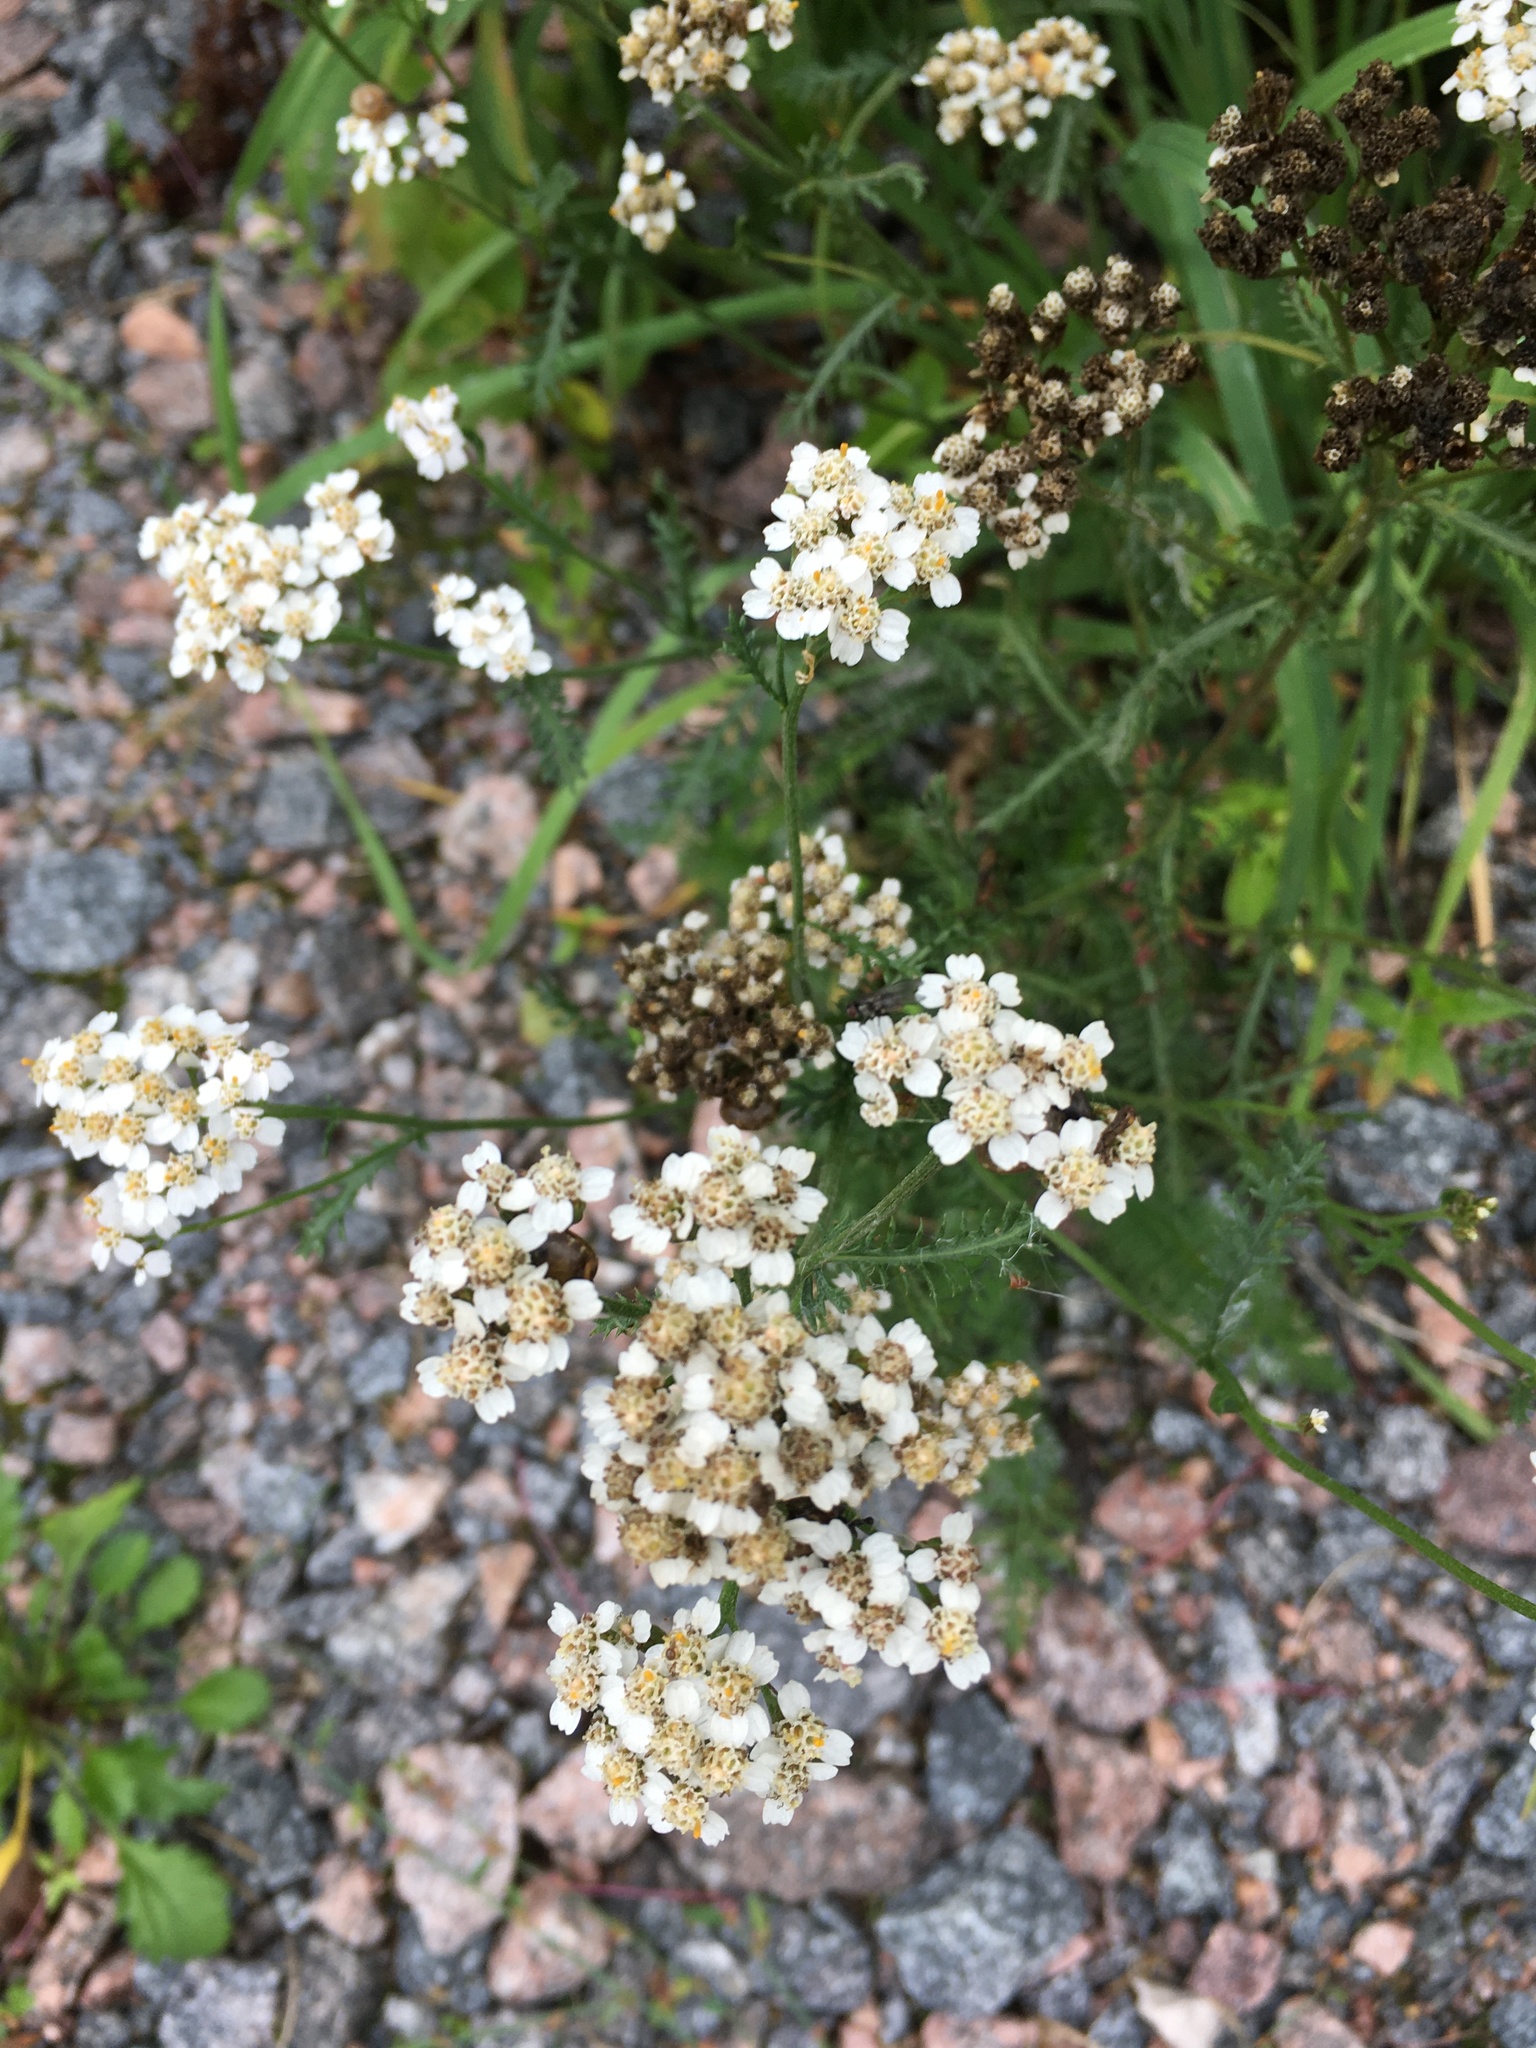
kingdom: Plantae
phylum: Tracheophyta
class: Magnoliopsida
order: Asterales
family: Asteraceae
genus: Achillea
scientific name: Achillea millefolium
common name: Yarrow
